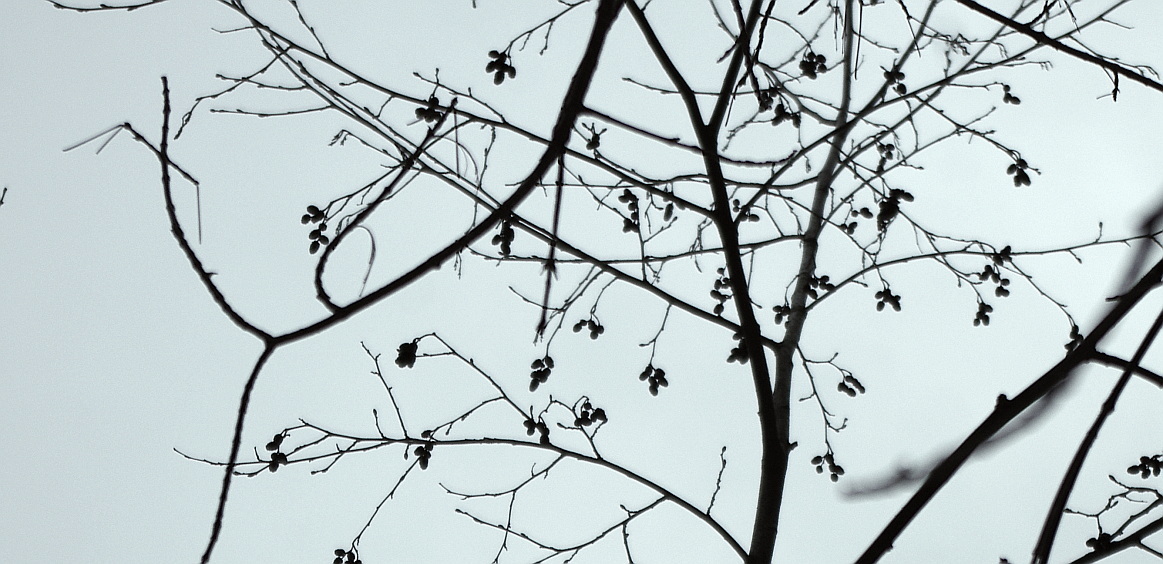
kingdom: Plantae
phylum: Tracheophyta
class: Magnoliopsida
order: Fagales
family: Betulaceae
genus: Alnus
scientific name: Alnus incana
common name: Grey alder
